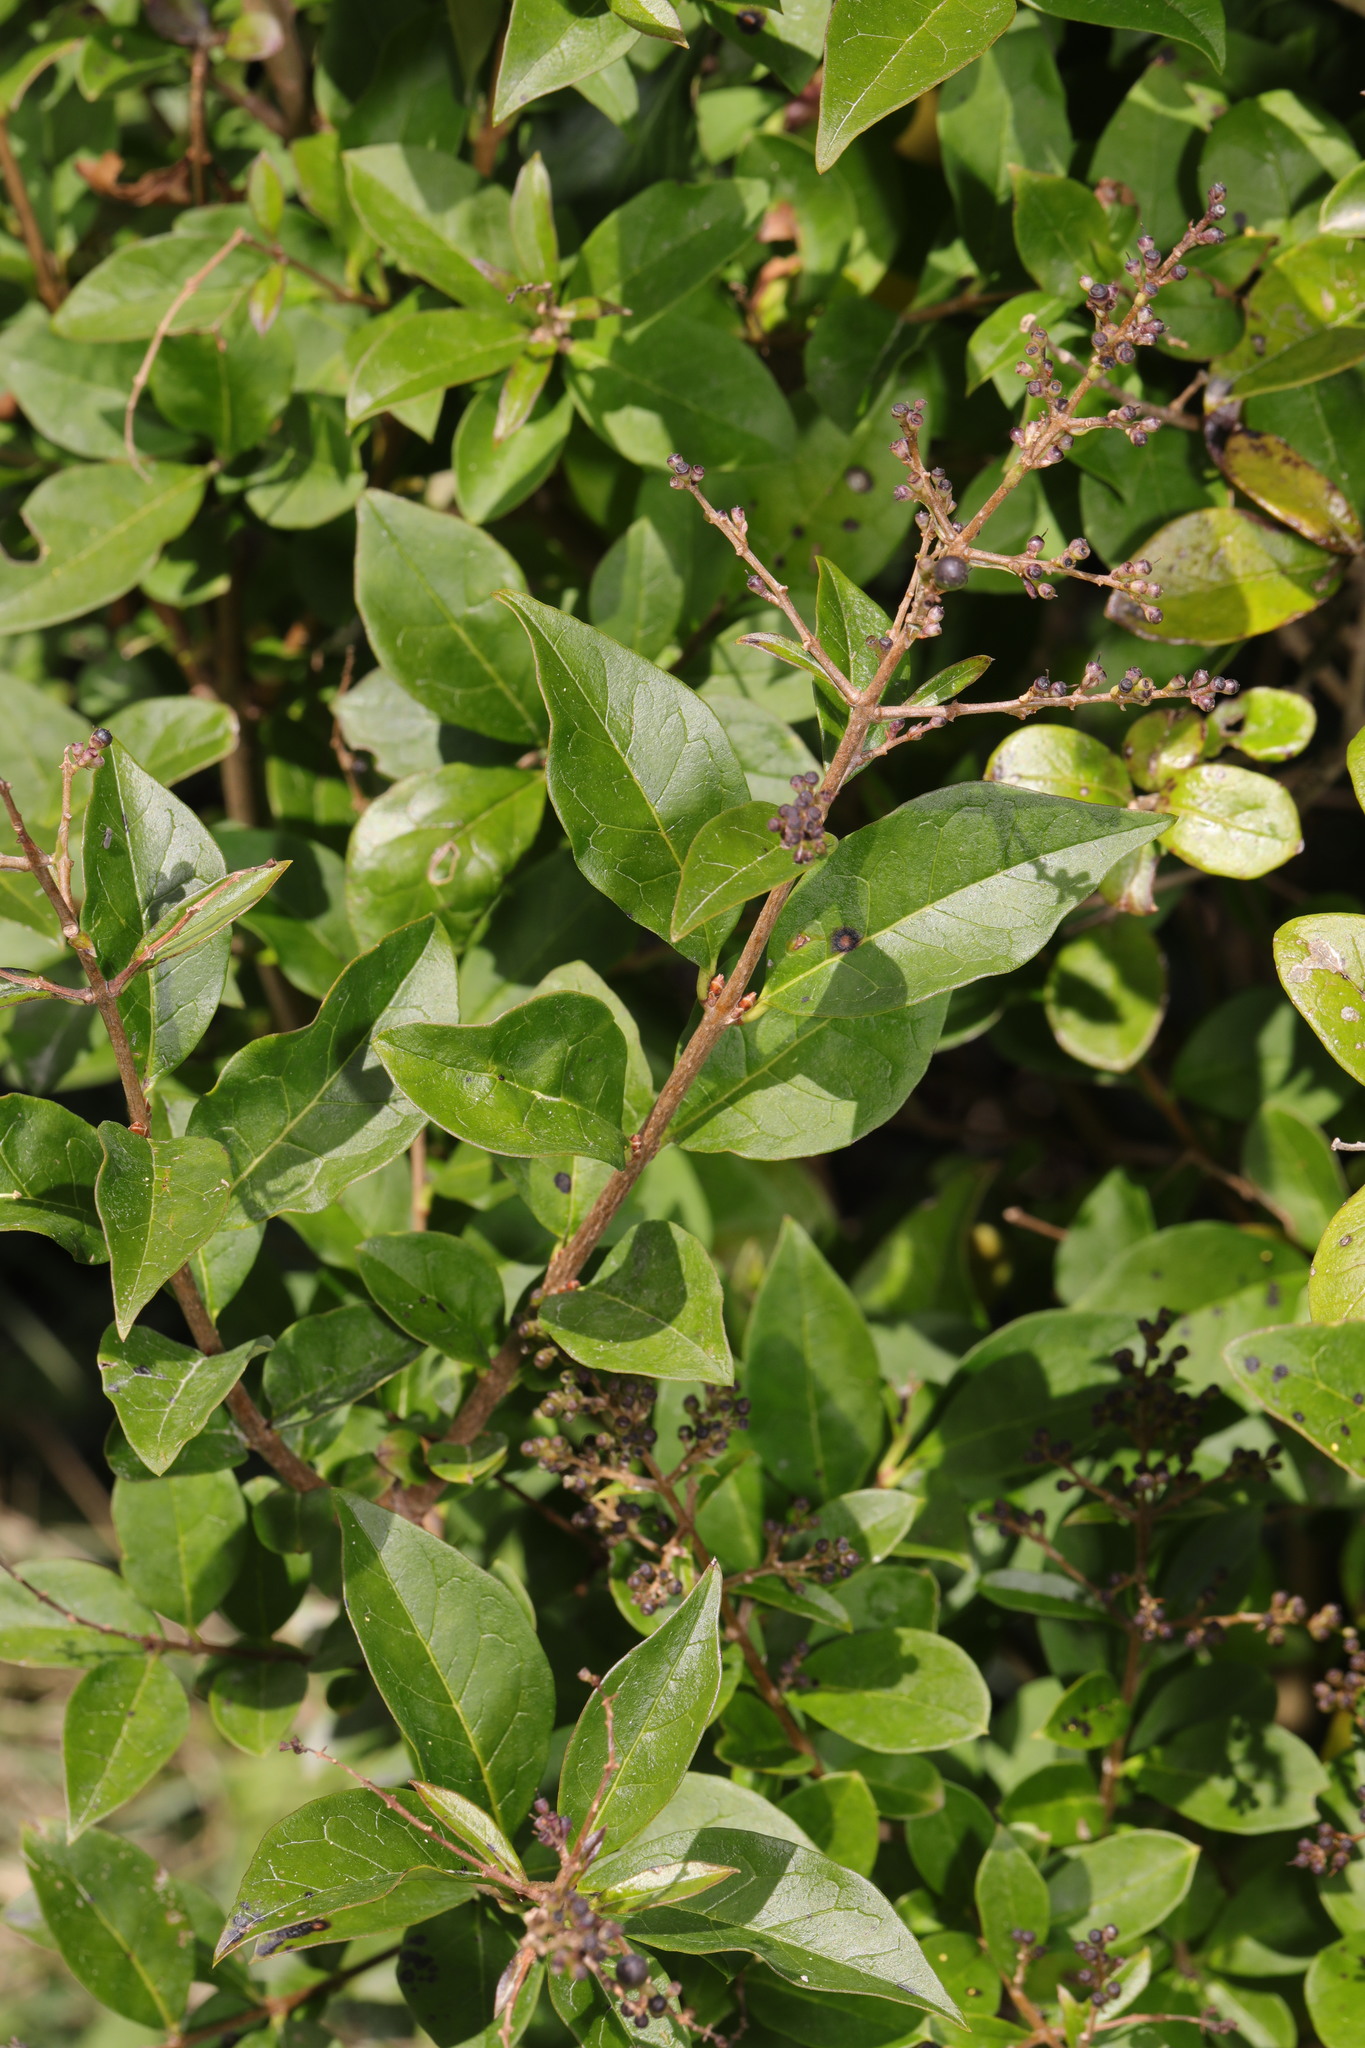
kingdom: Plantae
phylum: Tracheophyta
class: Magnoliopsida
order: Lamiales
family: Oleaceae
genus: Ligustrum
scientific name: Ligustrum ovalifolium
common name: California privet
